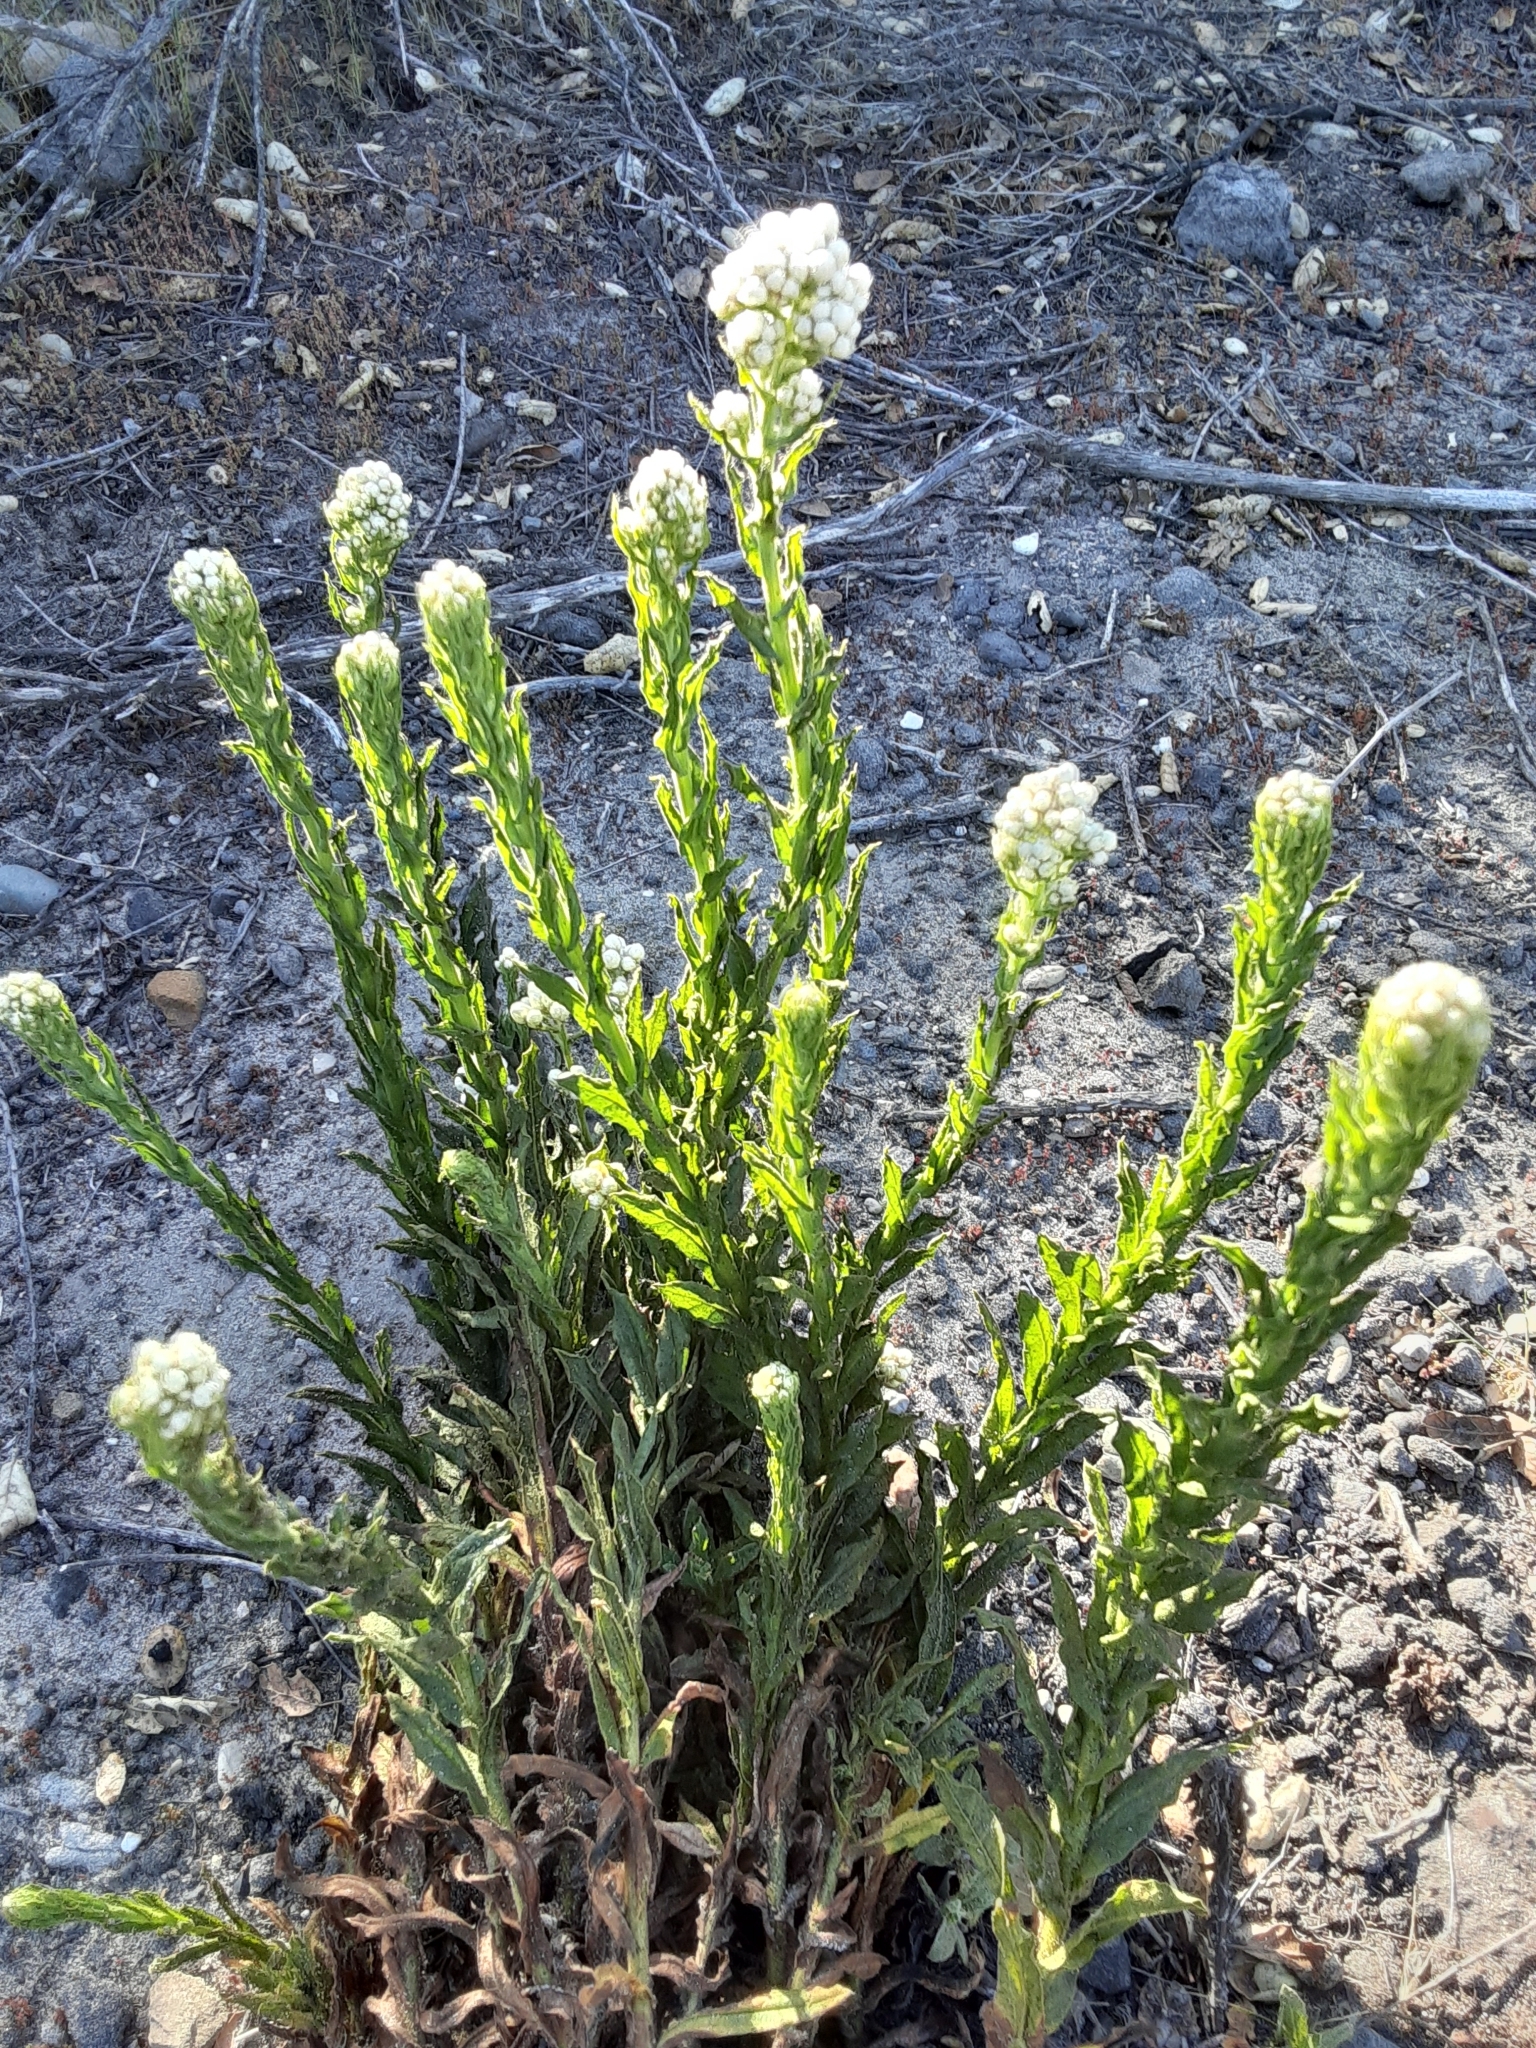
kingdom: Plantae
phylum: Tracheophyta
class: Magnoliopsida
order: Asterales
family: Asteraceae
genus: Pseudognaphalium
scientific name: Pseudognaphalium californicum
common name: California rabbit-tobacco
